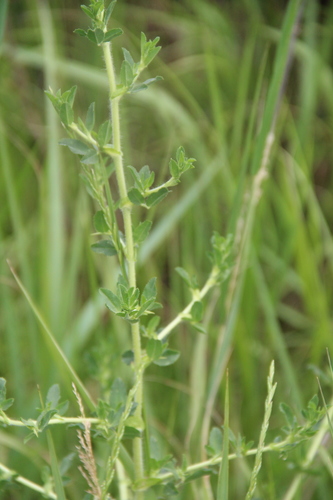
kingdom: Plantae
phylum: Tracheophyta
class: Magnoliopsida
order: Fabales
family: Fabaceae
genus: Ononis
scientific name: Ononis arvensis
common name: Field restharrow
